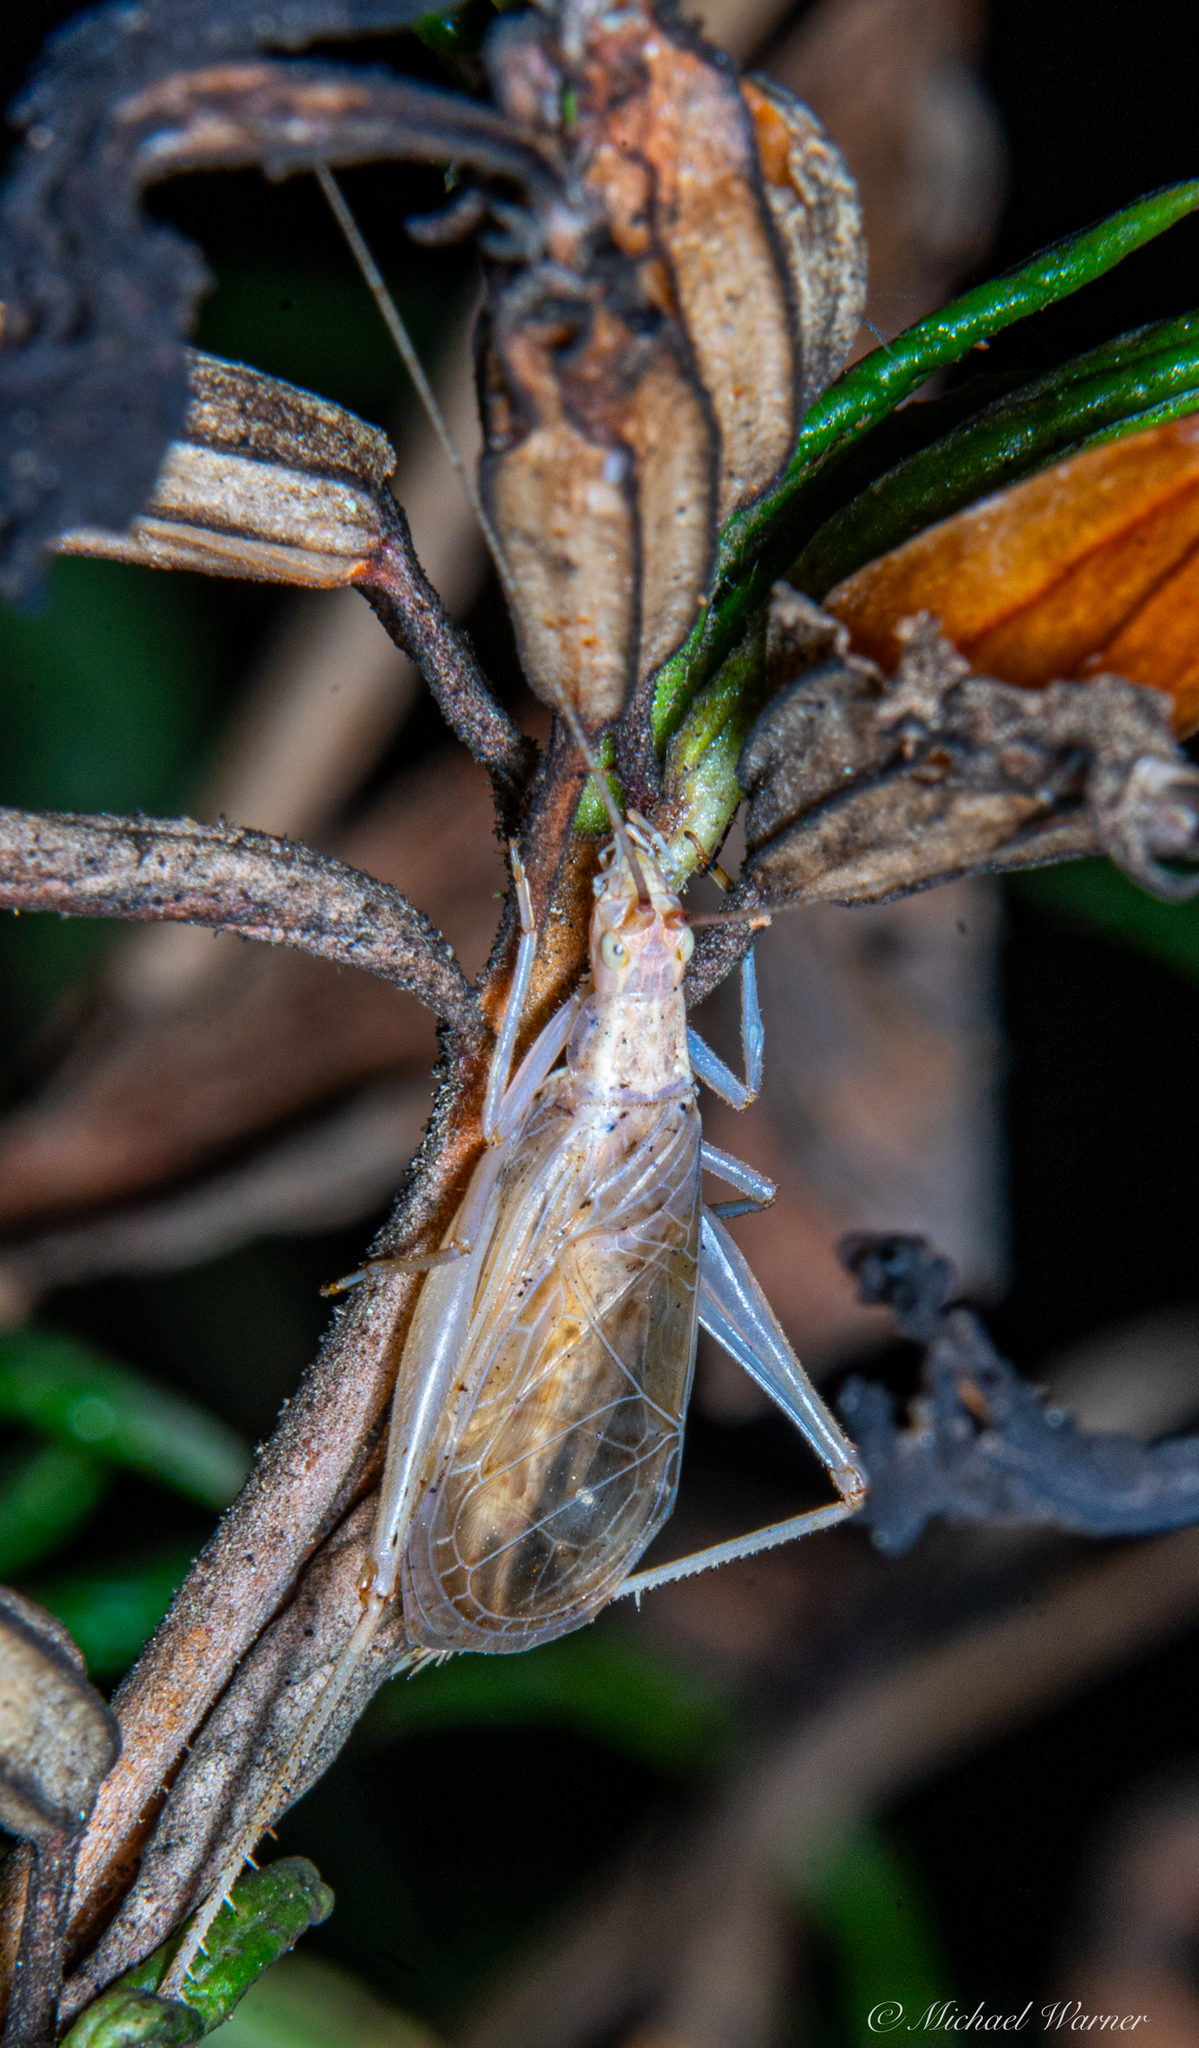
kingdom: Animalia
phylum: Arthropoda
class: Insecta
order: Orthoptera
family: Gryllidae
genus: Oecanthus
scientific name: Oecanthus californicus
